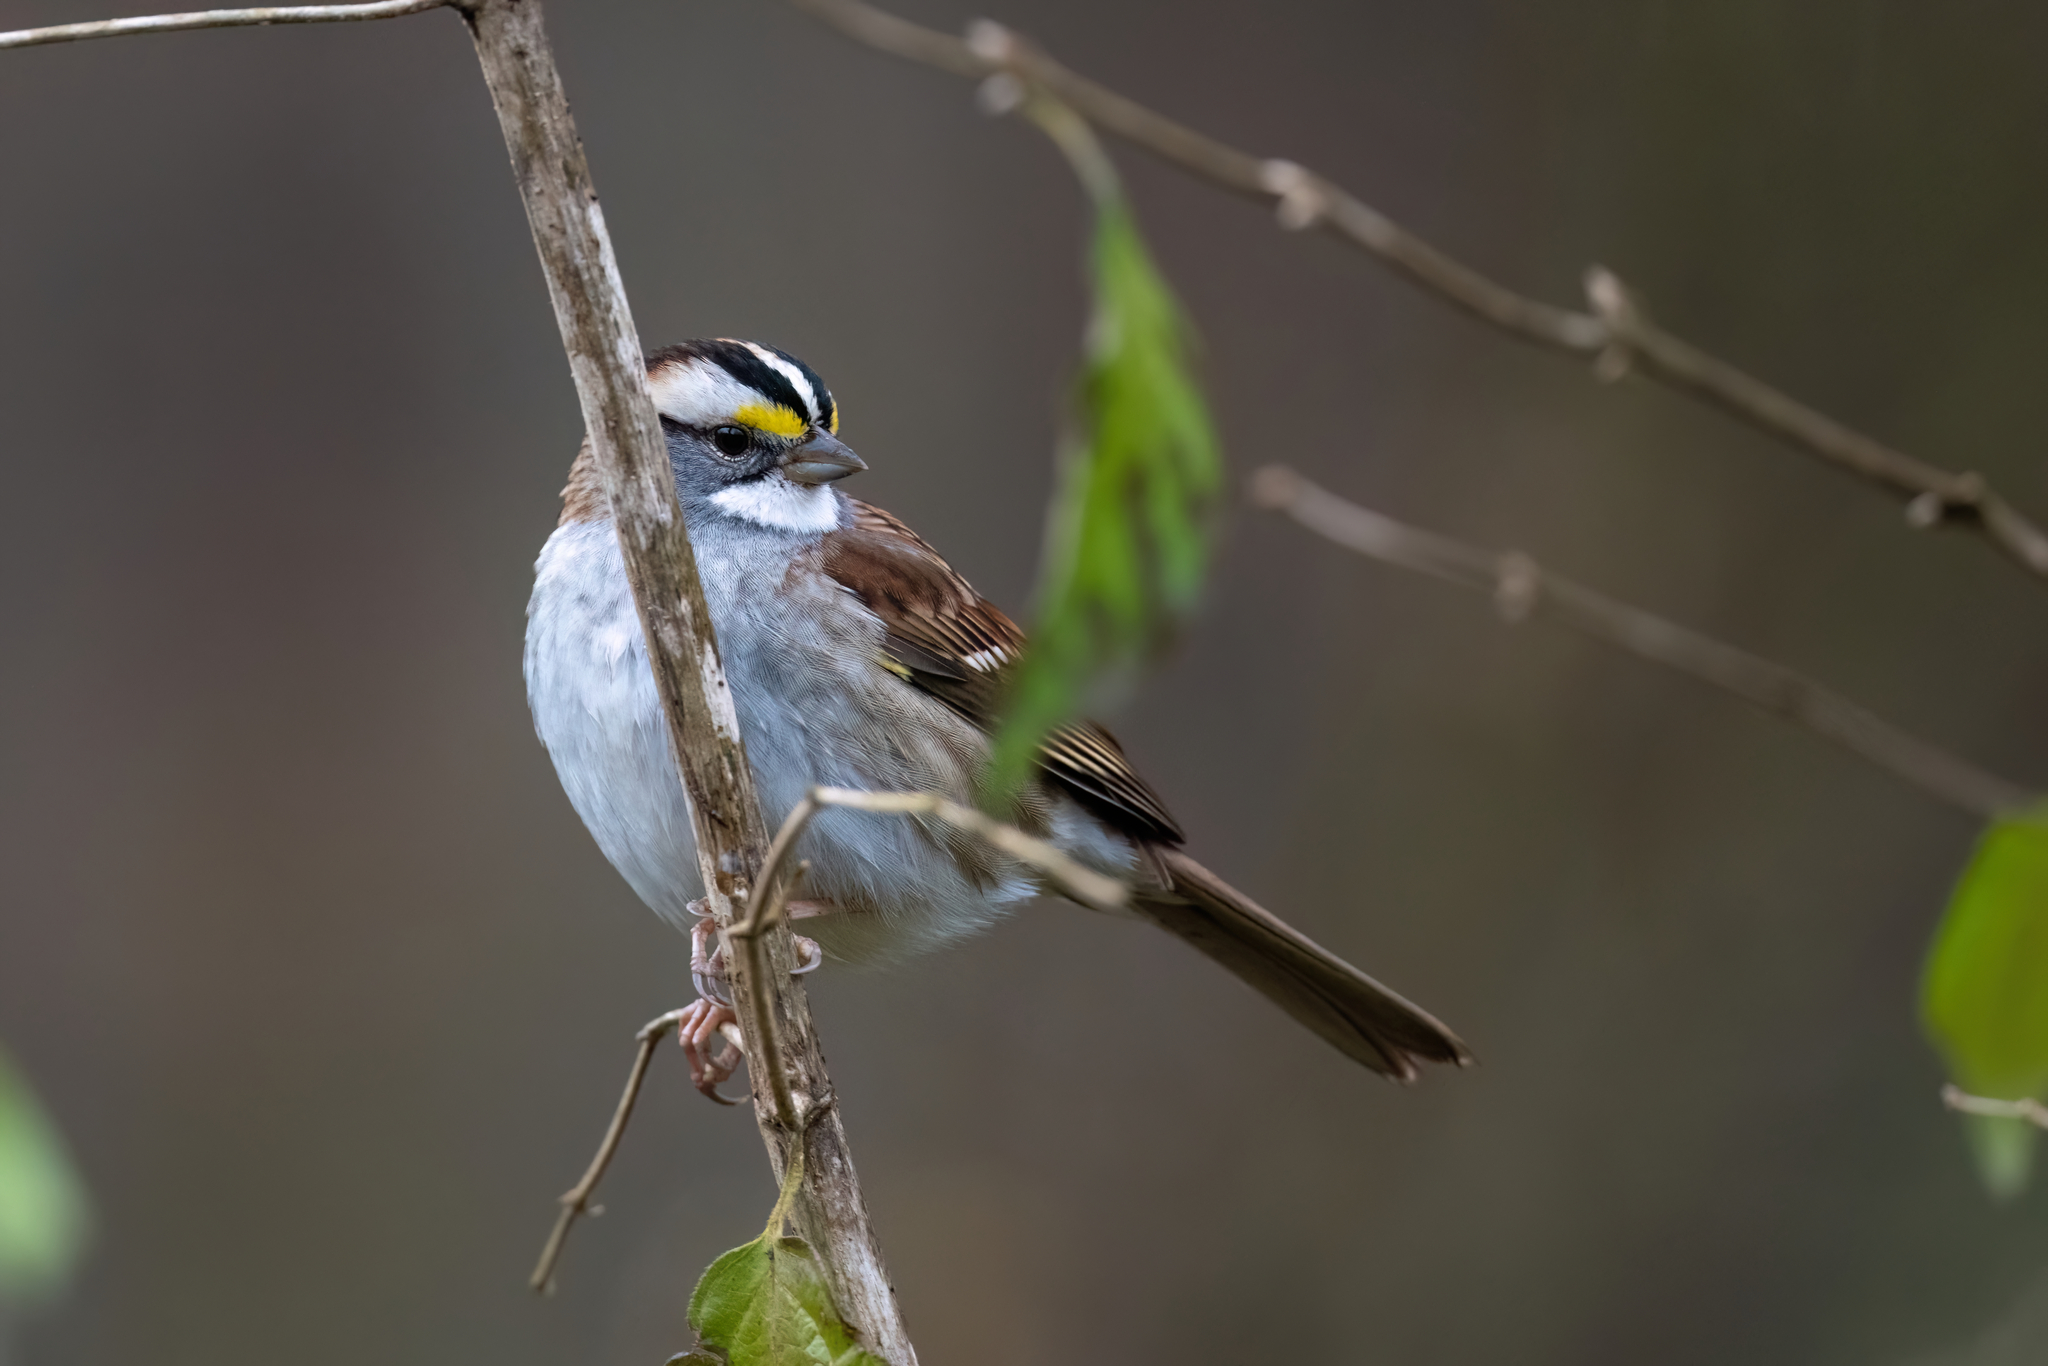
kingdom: Animalia
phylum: Chordata
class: Aves
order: Passeriformes
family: Passerellidae
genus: Zonotrichia
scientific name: Zonotrichia albicollis
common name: White-throated sparrow
